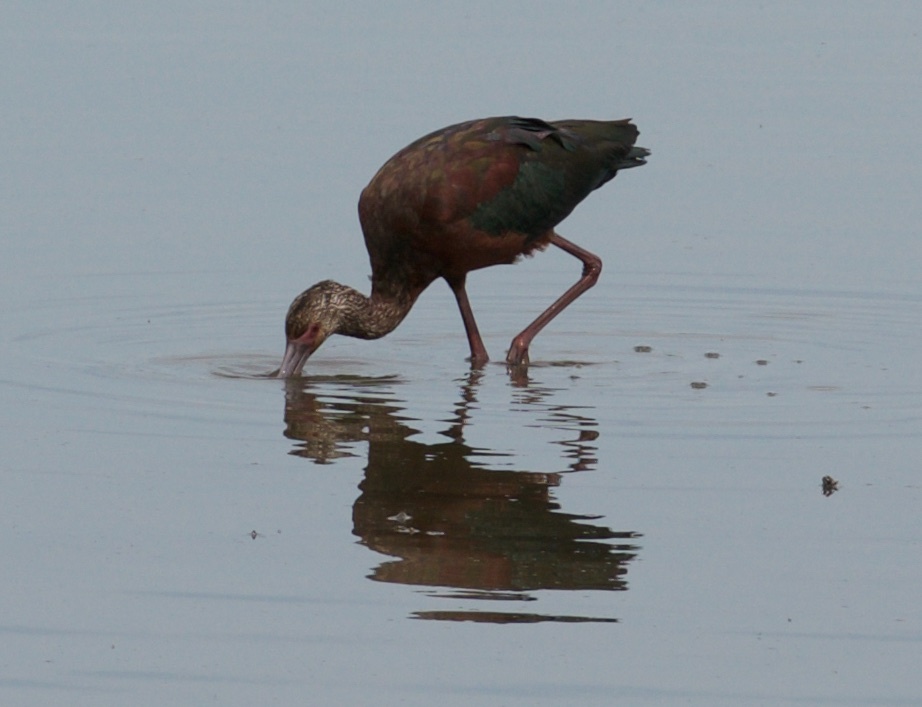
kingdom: Animalia
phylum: Chordata
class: Aves
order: Pelecaniformes
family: Threskiornithidae
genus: Plegadis
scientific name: Plegadis chihi
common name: White-faced ibis
